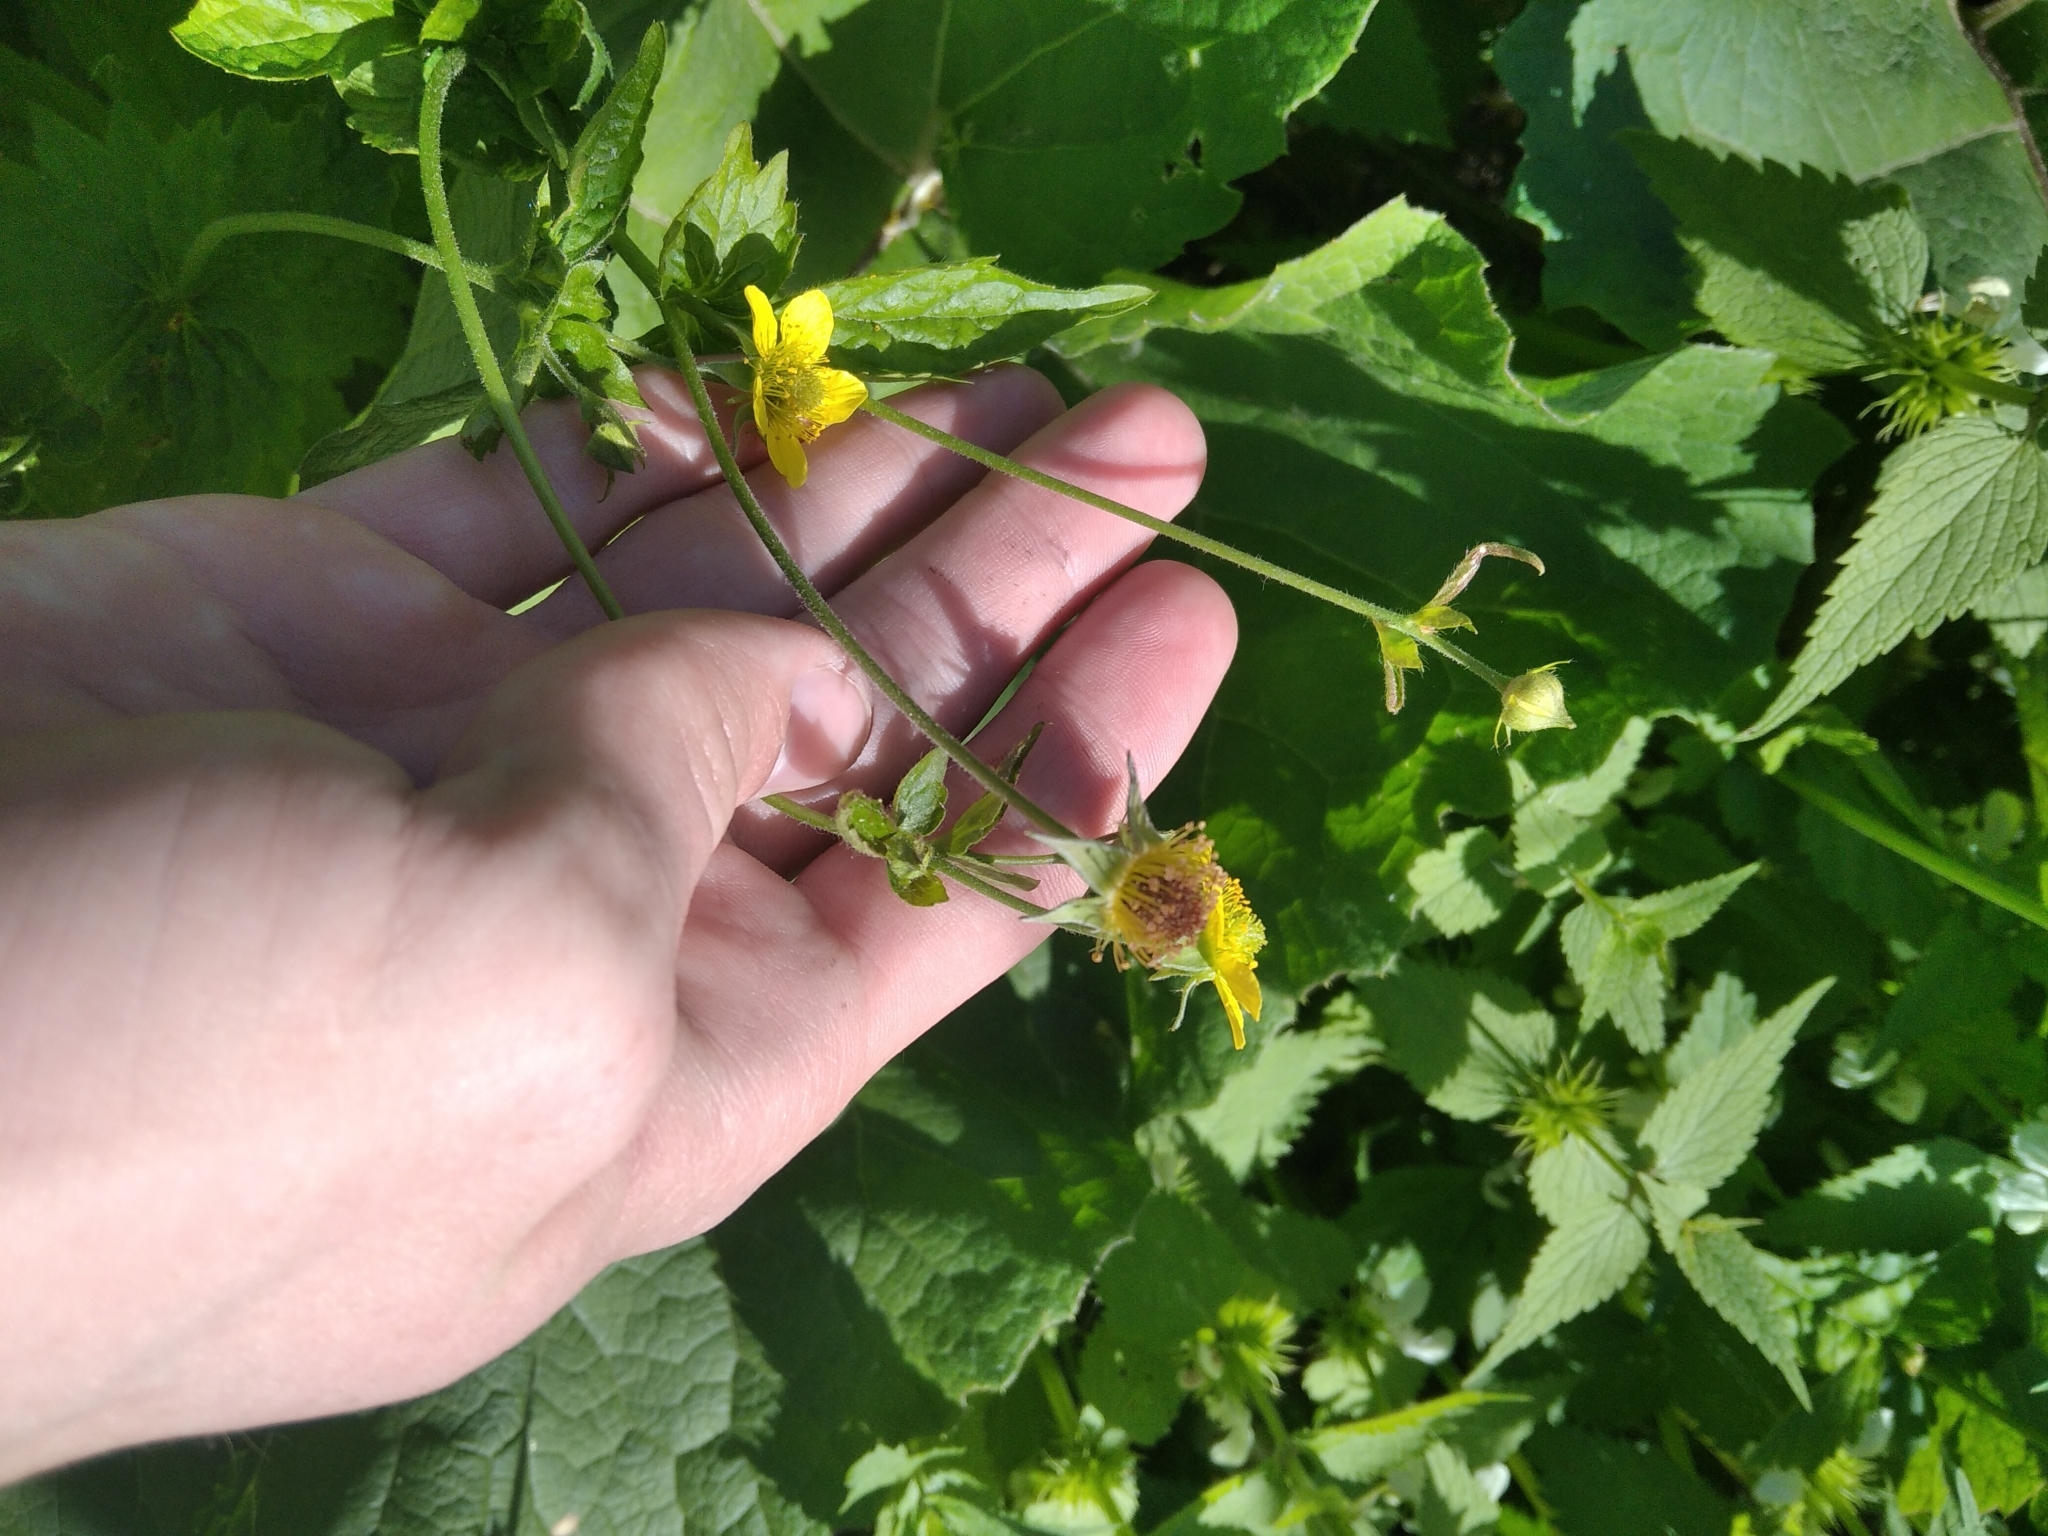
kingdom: Plantae
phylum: Tracheophyta
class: Magnoliopsida
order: Rosales
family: Rosaceae
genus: Geum
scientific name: Geum urbanum
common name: Wood avens
